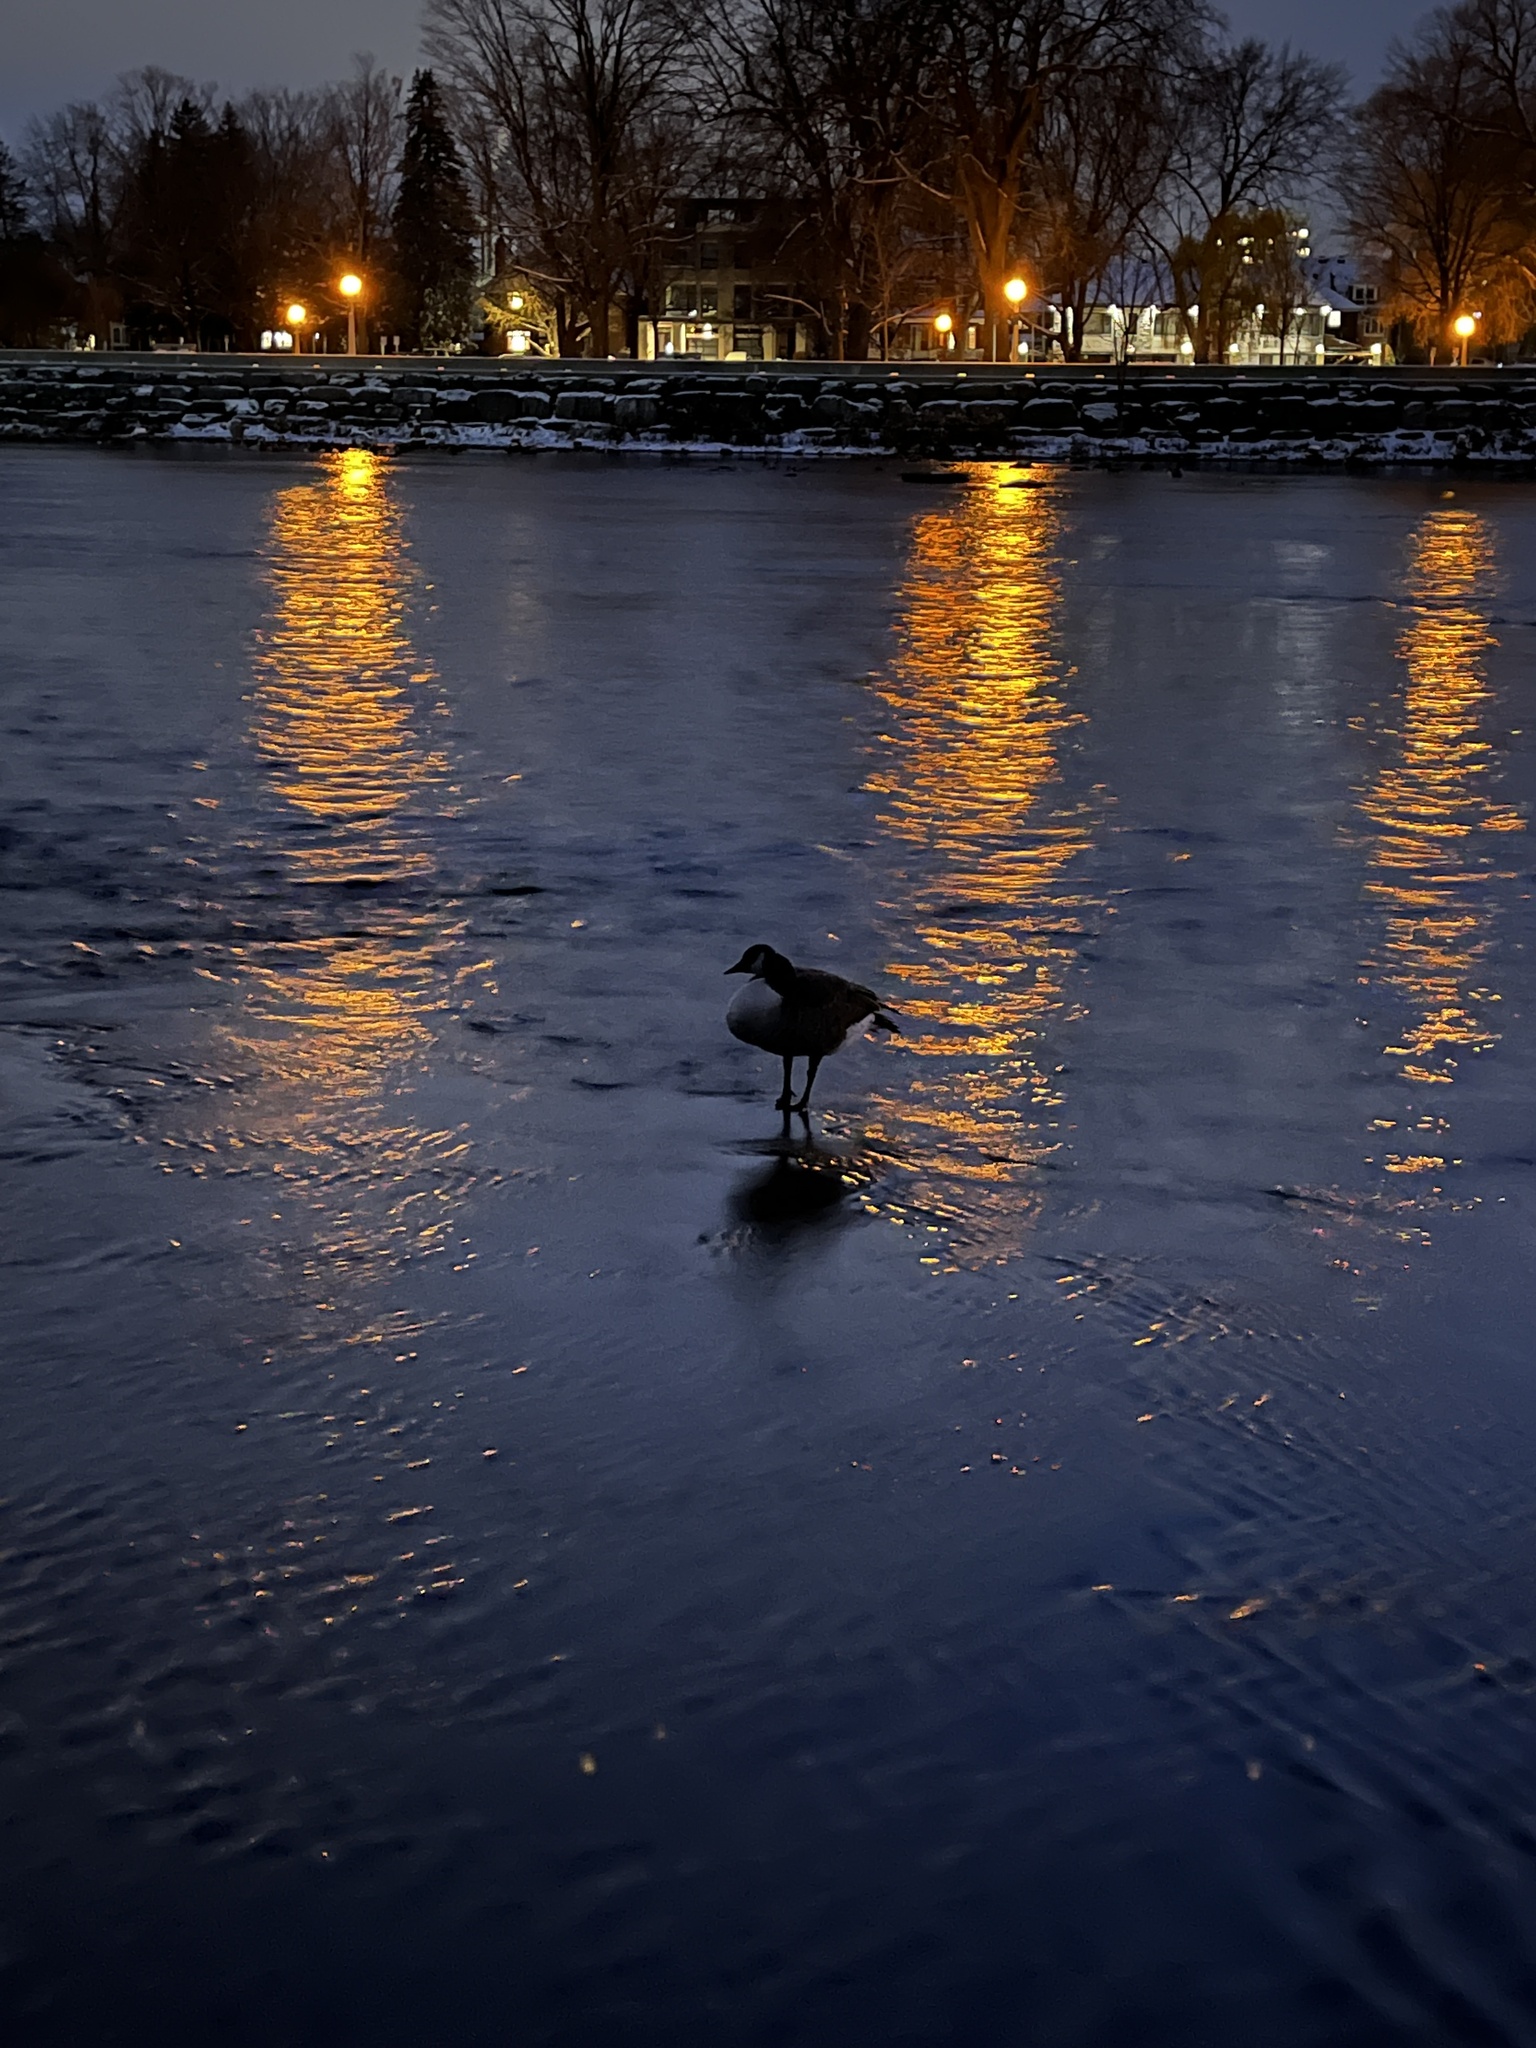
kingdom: Animalia
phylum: Chordata
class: Aves
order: Anseriformes
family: Anatidae
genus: Branta
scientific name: Branta canadensis
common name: Canada goose
